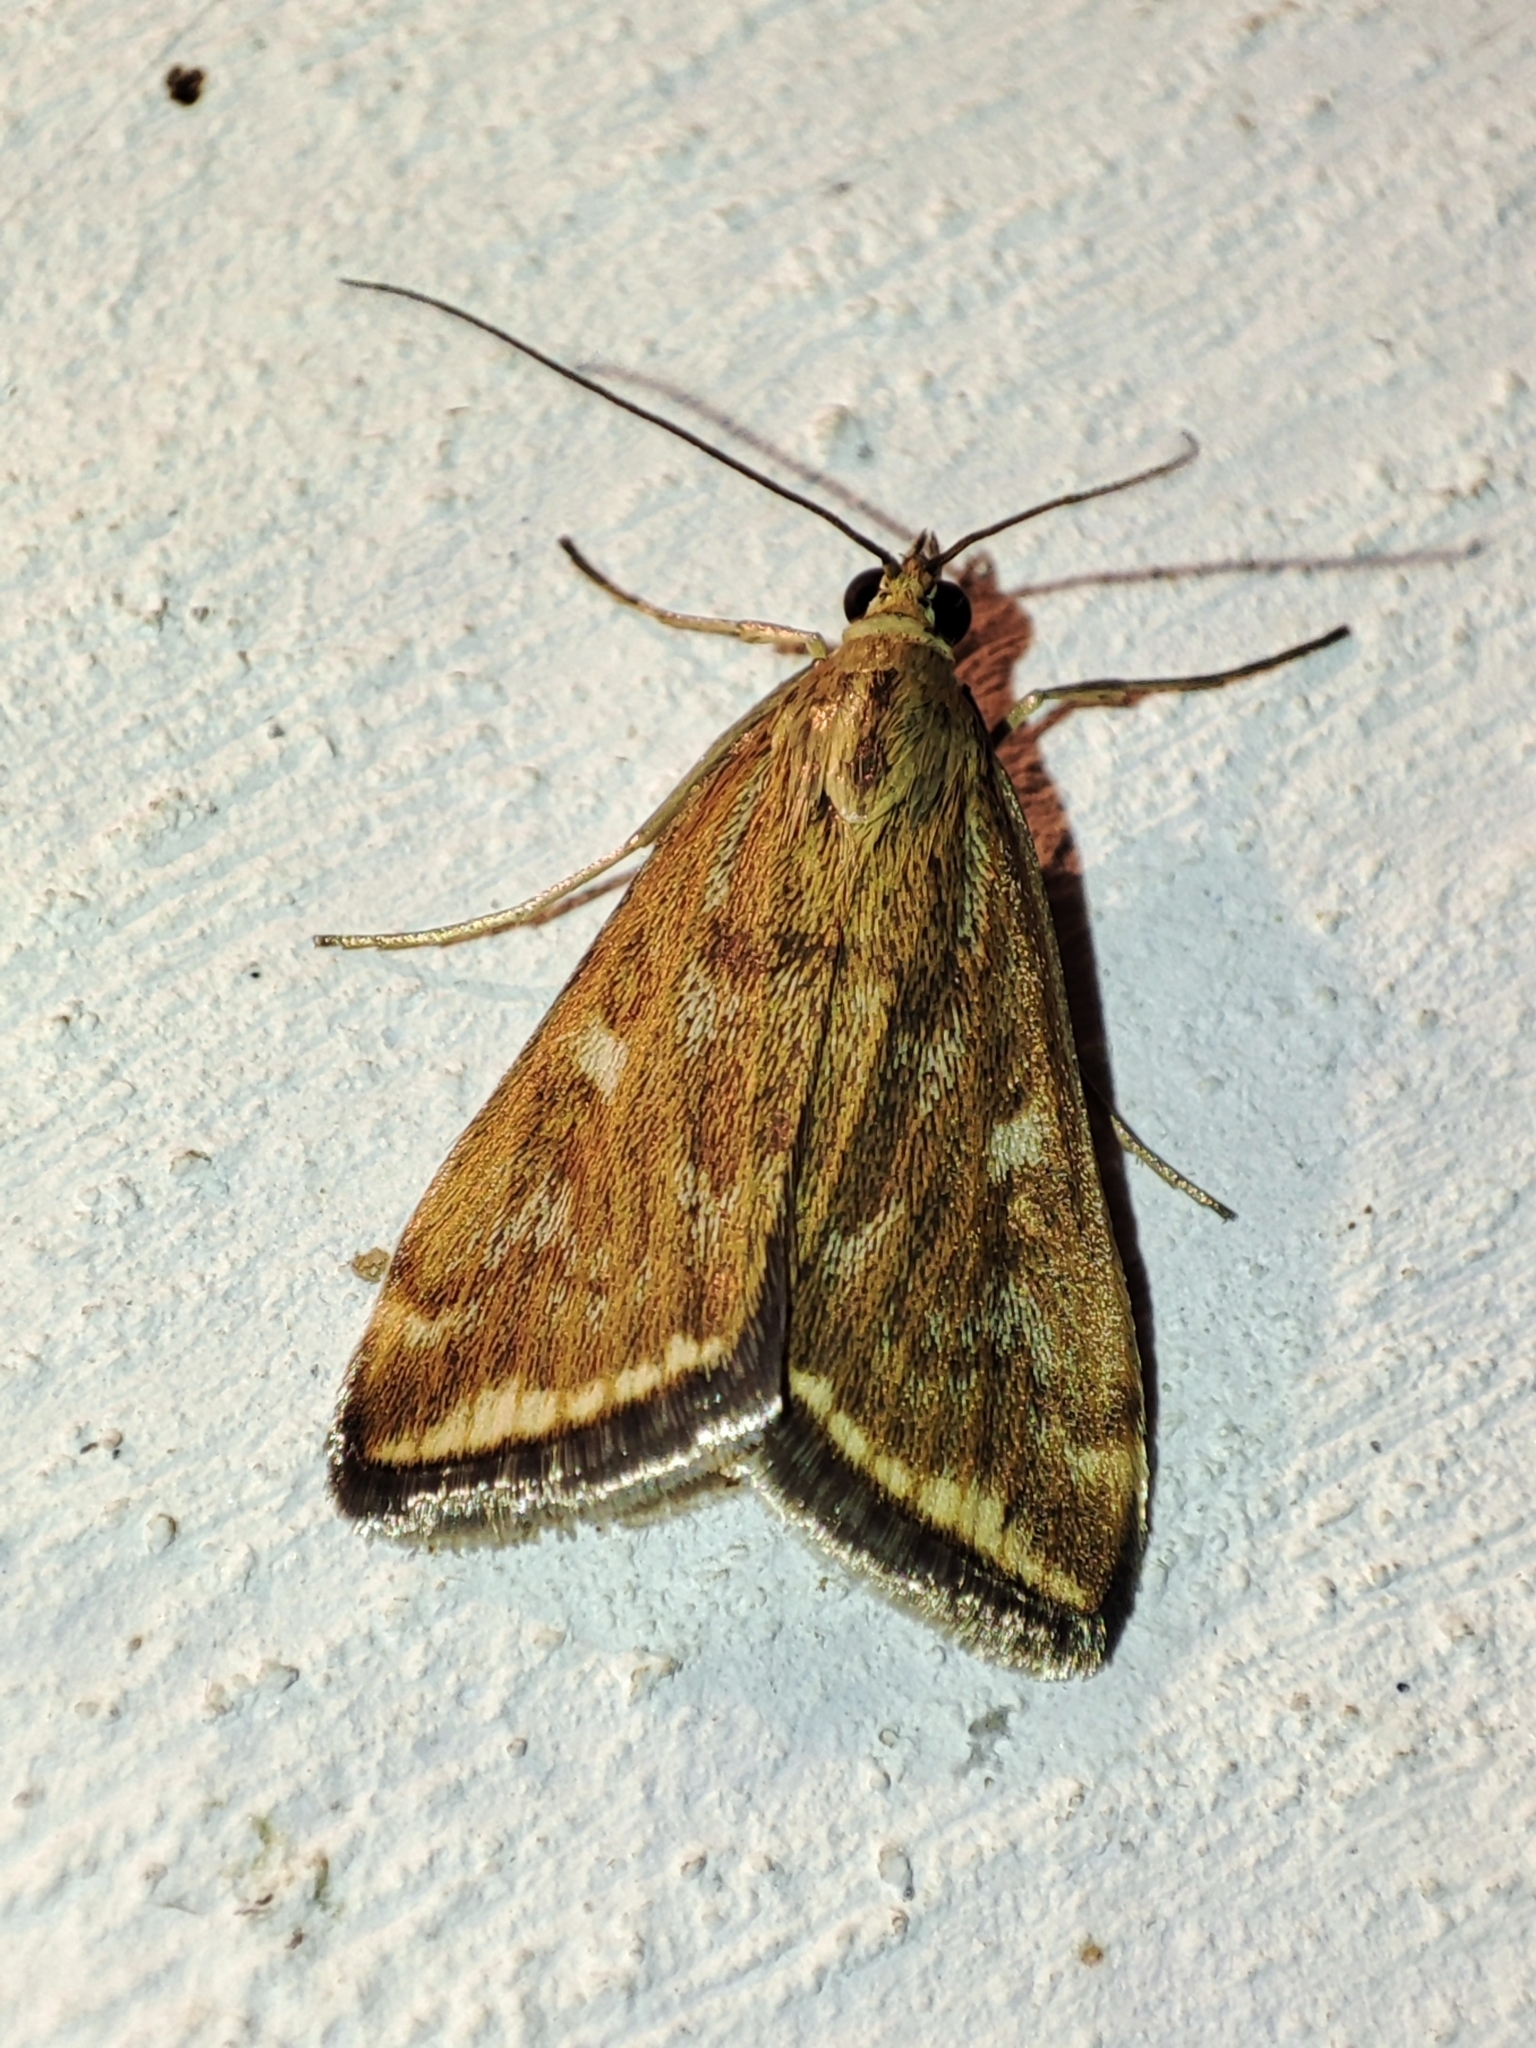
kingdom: Animalia
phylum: Arthropoda
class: Insecta
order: Lepidoptera
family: Crambidae
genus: Loxostege
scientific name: Loxostege sticticalis
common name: Crambid moth
